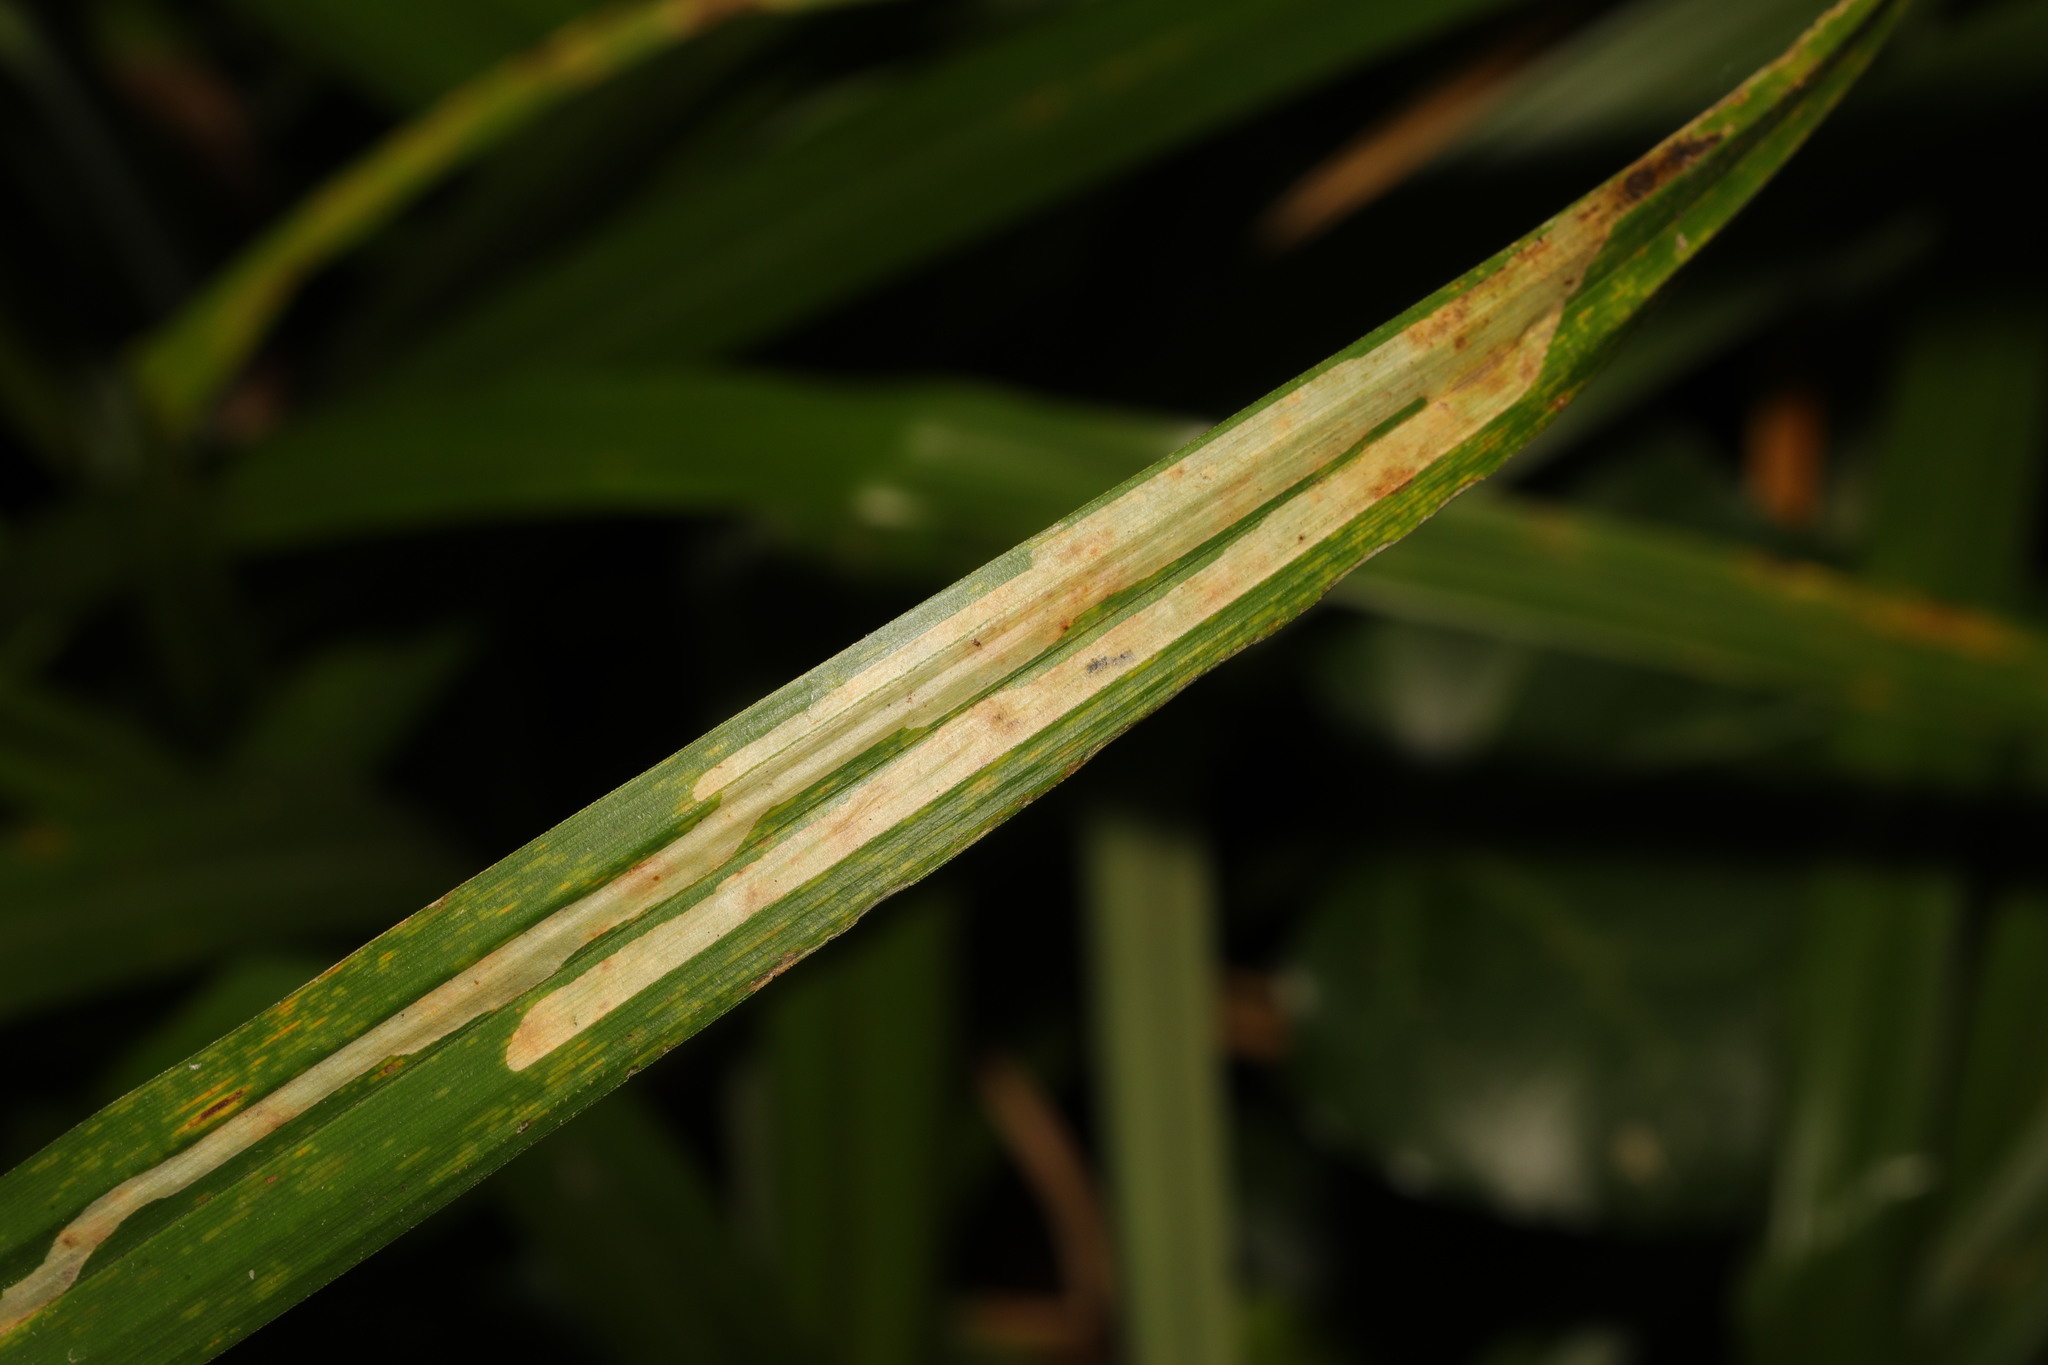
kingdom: Animalia
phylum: Arthropoda
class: Insecta
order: Diptera
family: Agromyzidae
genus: Cerodontha
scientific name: Cerodontha
